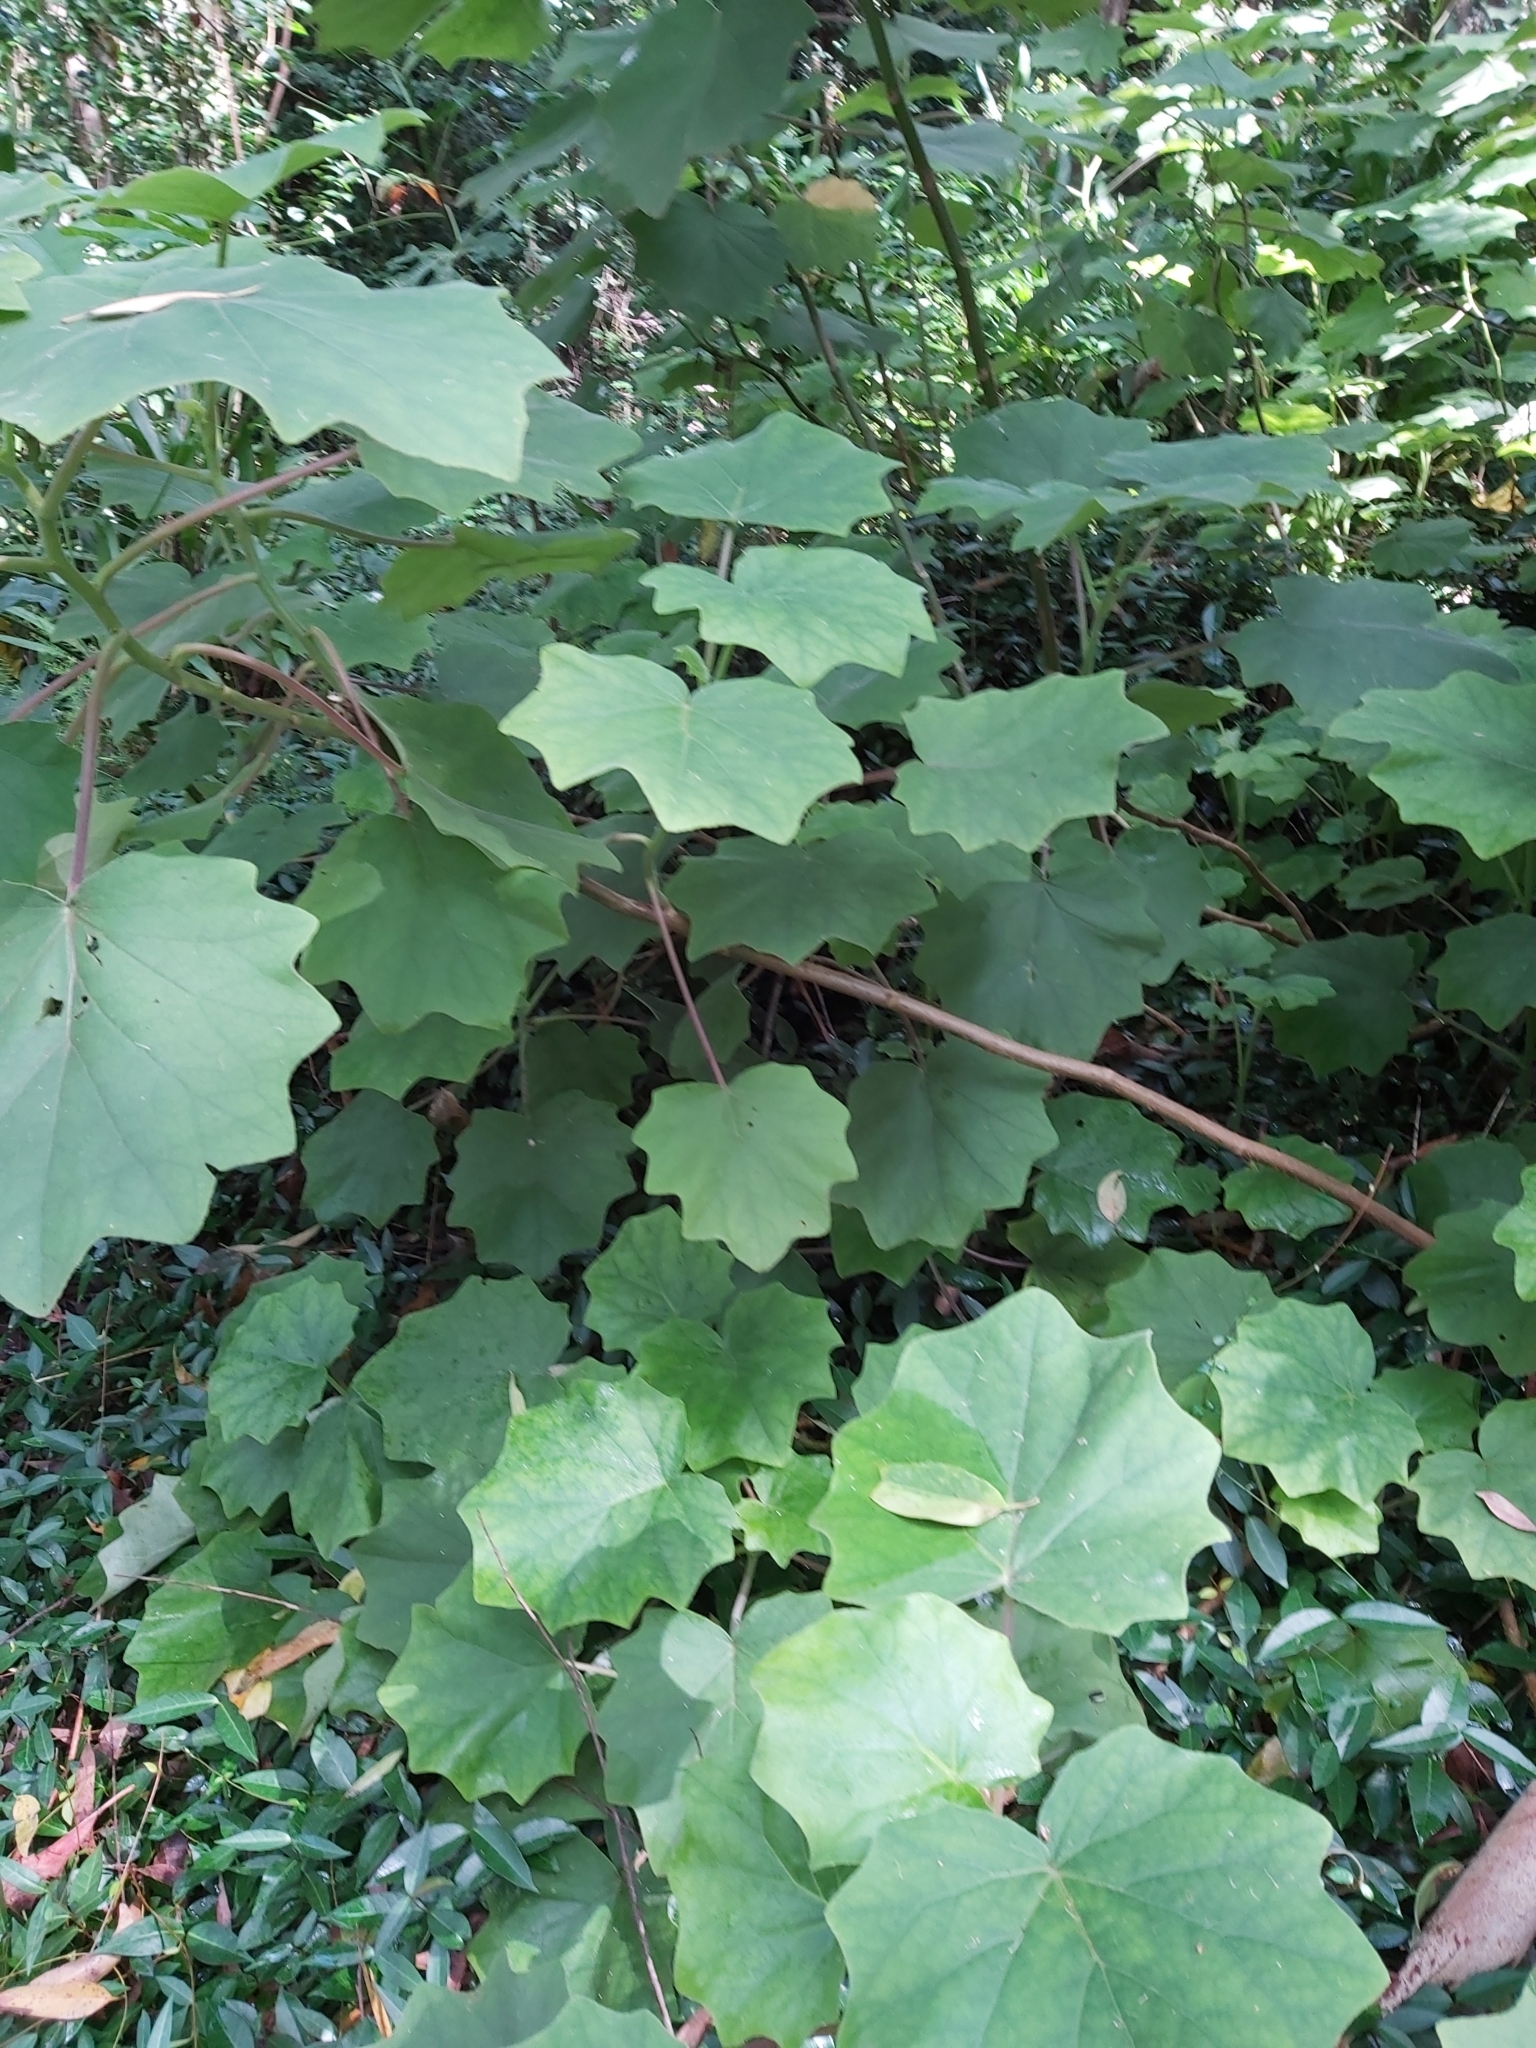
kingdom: Plantae
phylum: Tracheophyta
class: Magnoliopsida
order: Asterales
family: Asteraceae
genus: Roldana
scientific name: Roldana petasitis
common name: California-geranium
